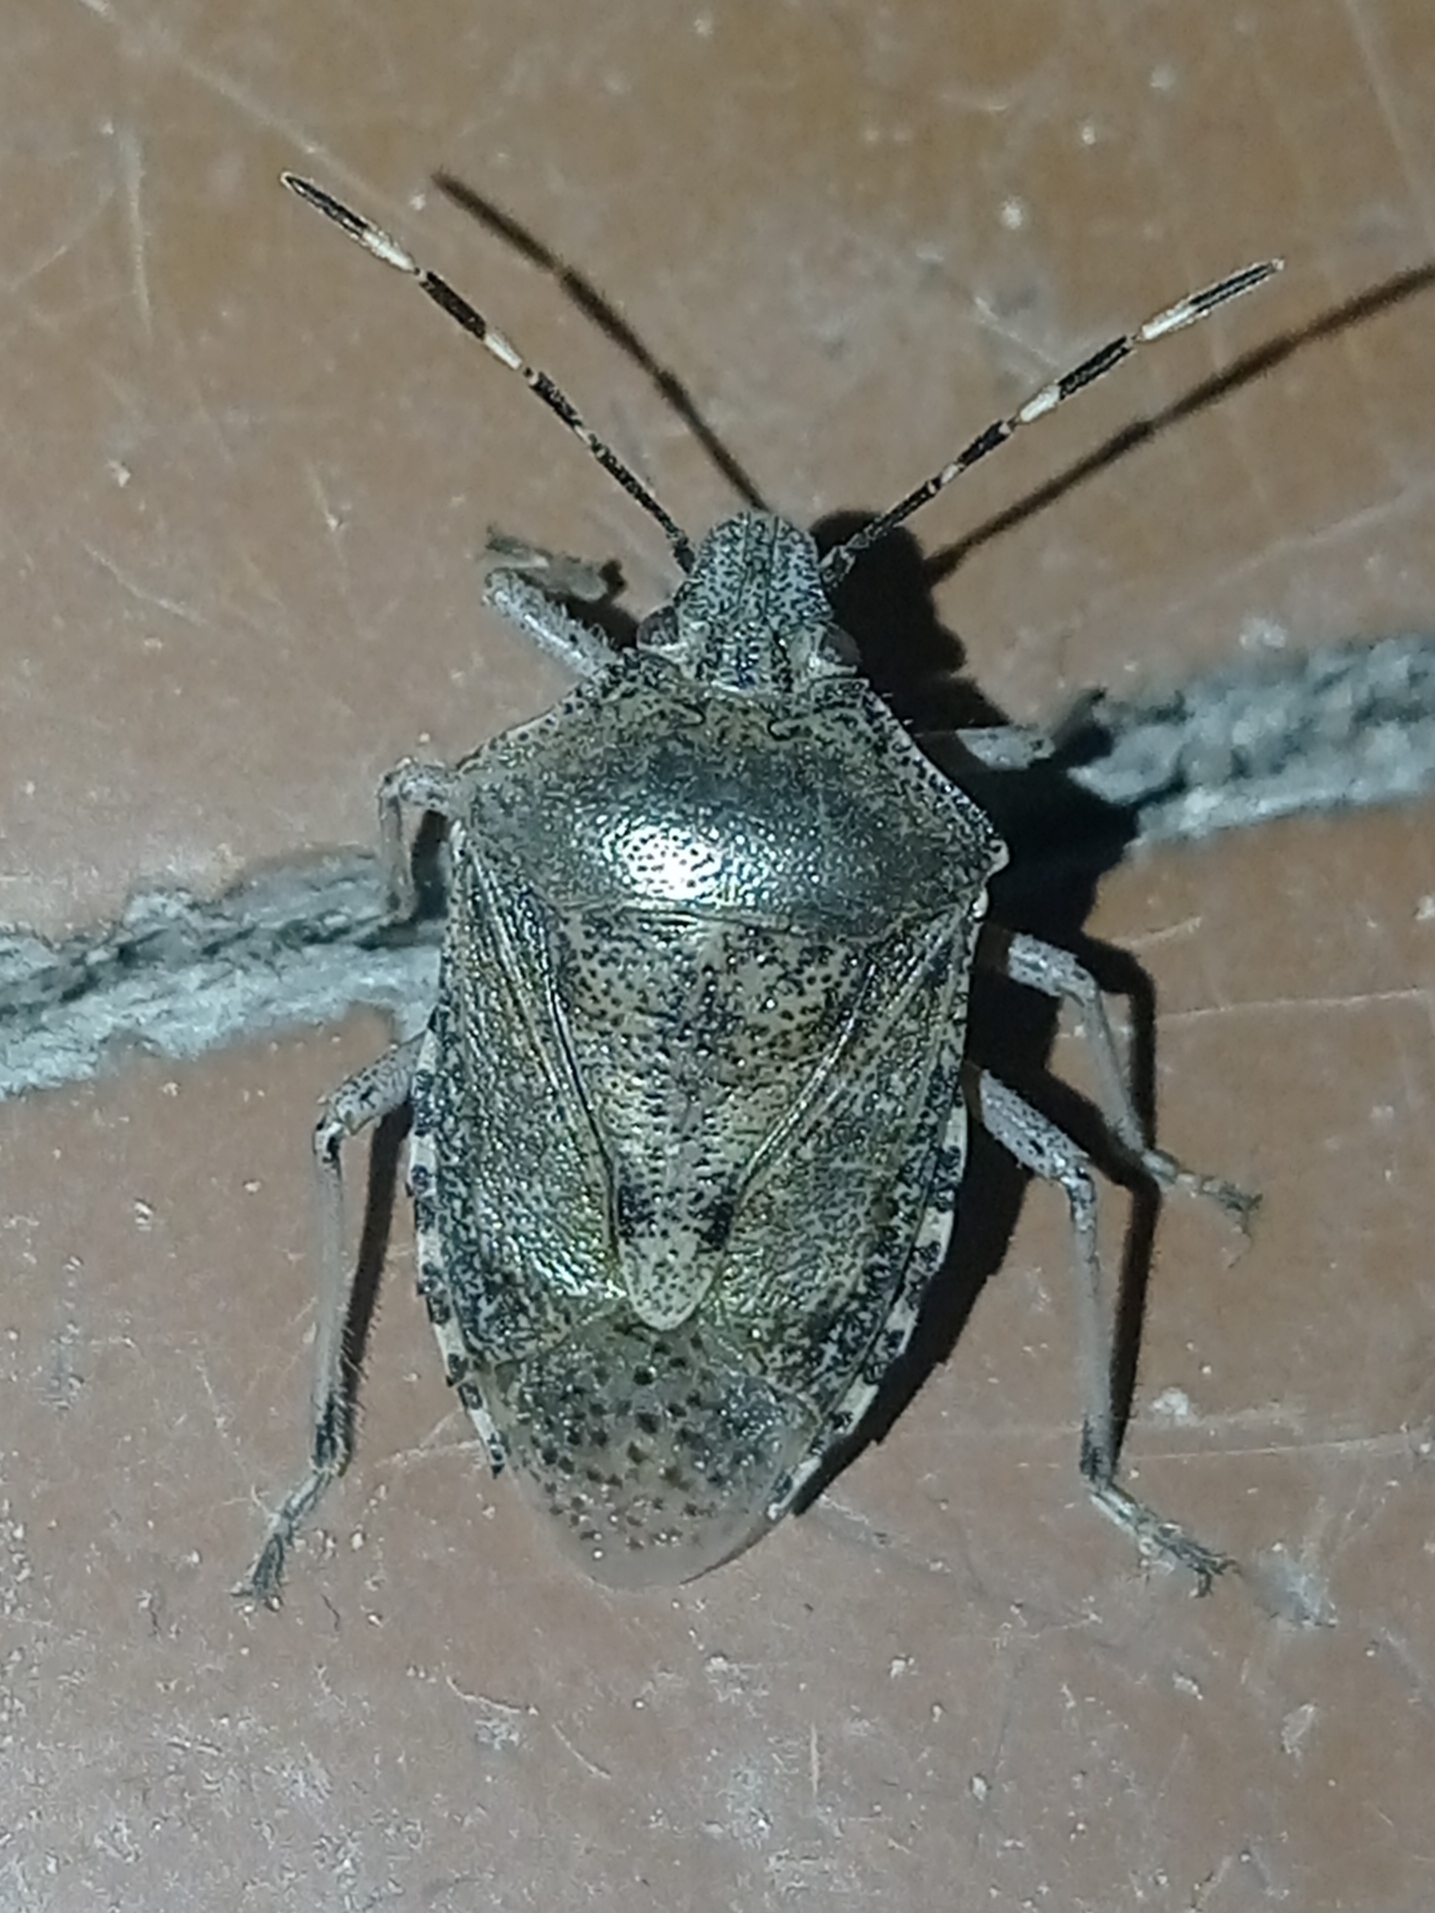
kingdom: Animalia
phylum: Arthropoda
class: Insecta
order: Hemiptera
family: Pentatomidae
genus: Rhaphigaster
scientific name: Rhaphigaster nebulosa
